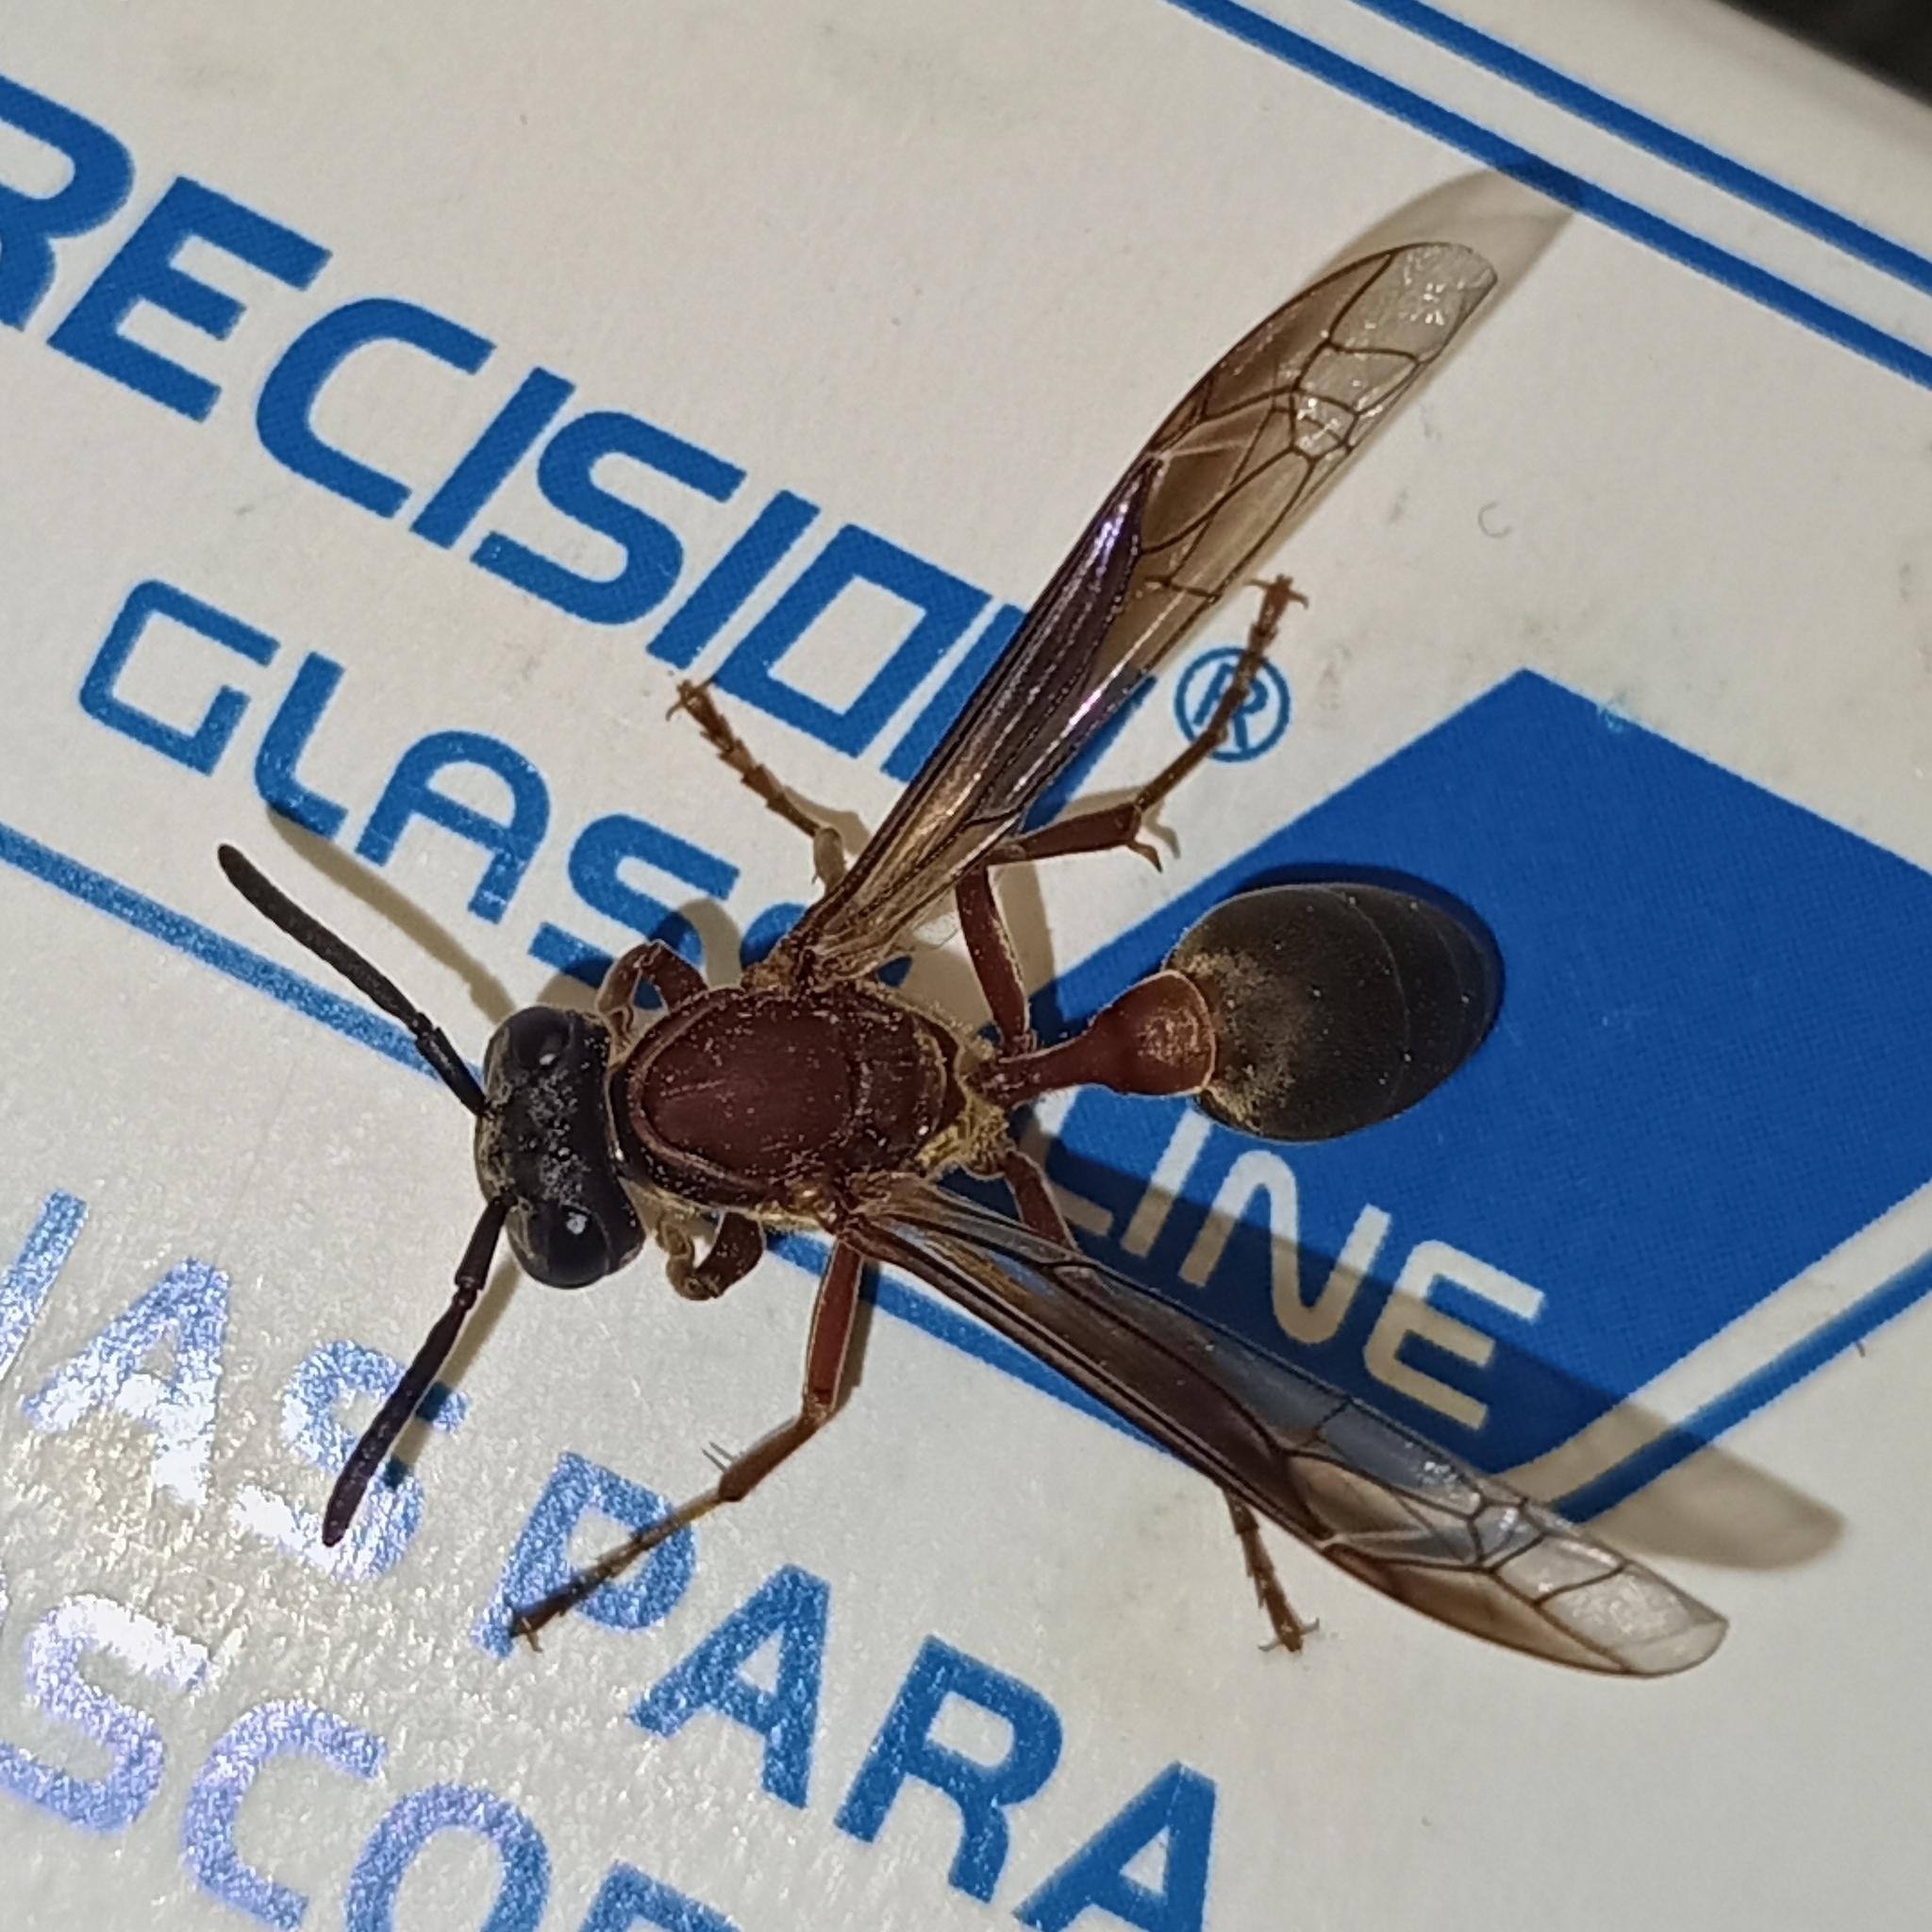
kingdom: Animalia
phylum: Arthropoda
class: Insecta
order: Hymenoptera
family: Eumenidae
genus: Polybia
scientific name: Polybia sericea
